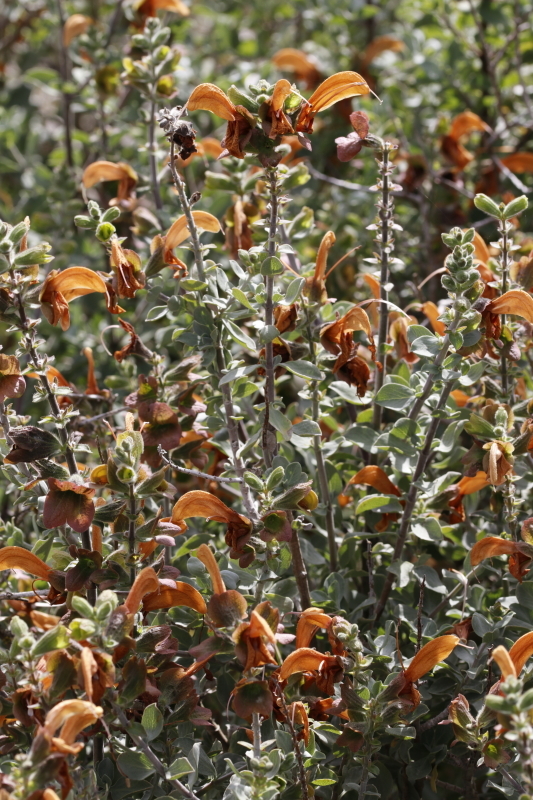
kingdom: Plantae
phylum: Tracheophyta
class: Magnoliopsida
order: Lamiales
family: Lamiaceae
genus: Salvia
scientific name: Salvia aurea
